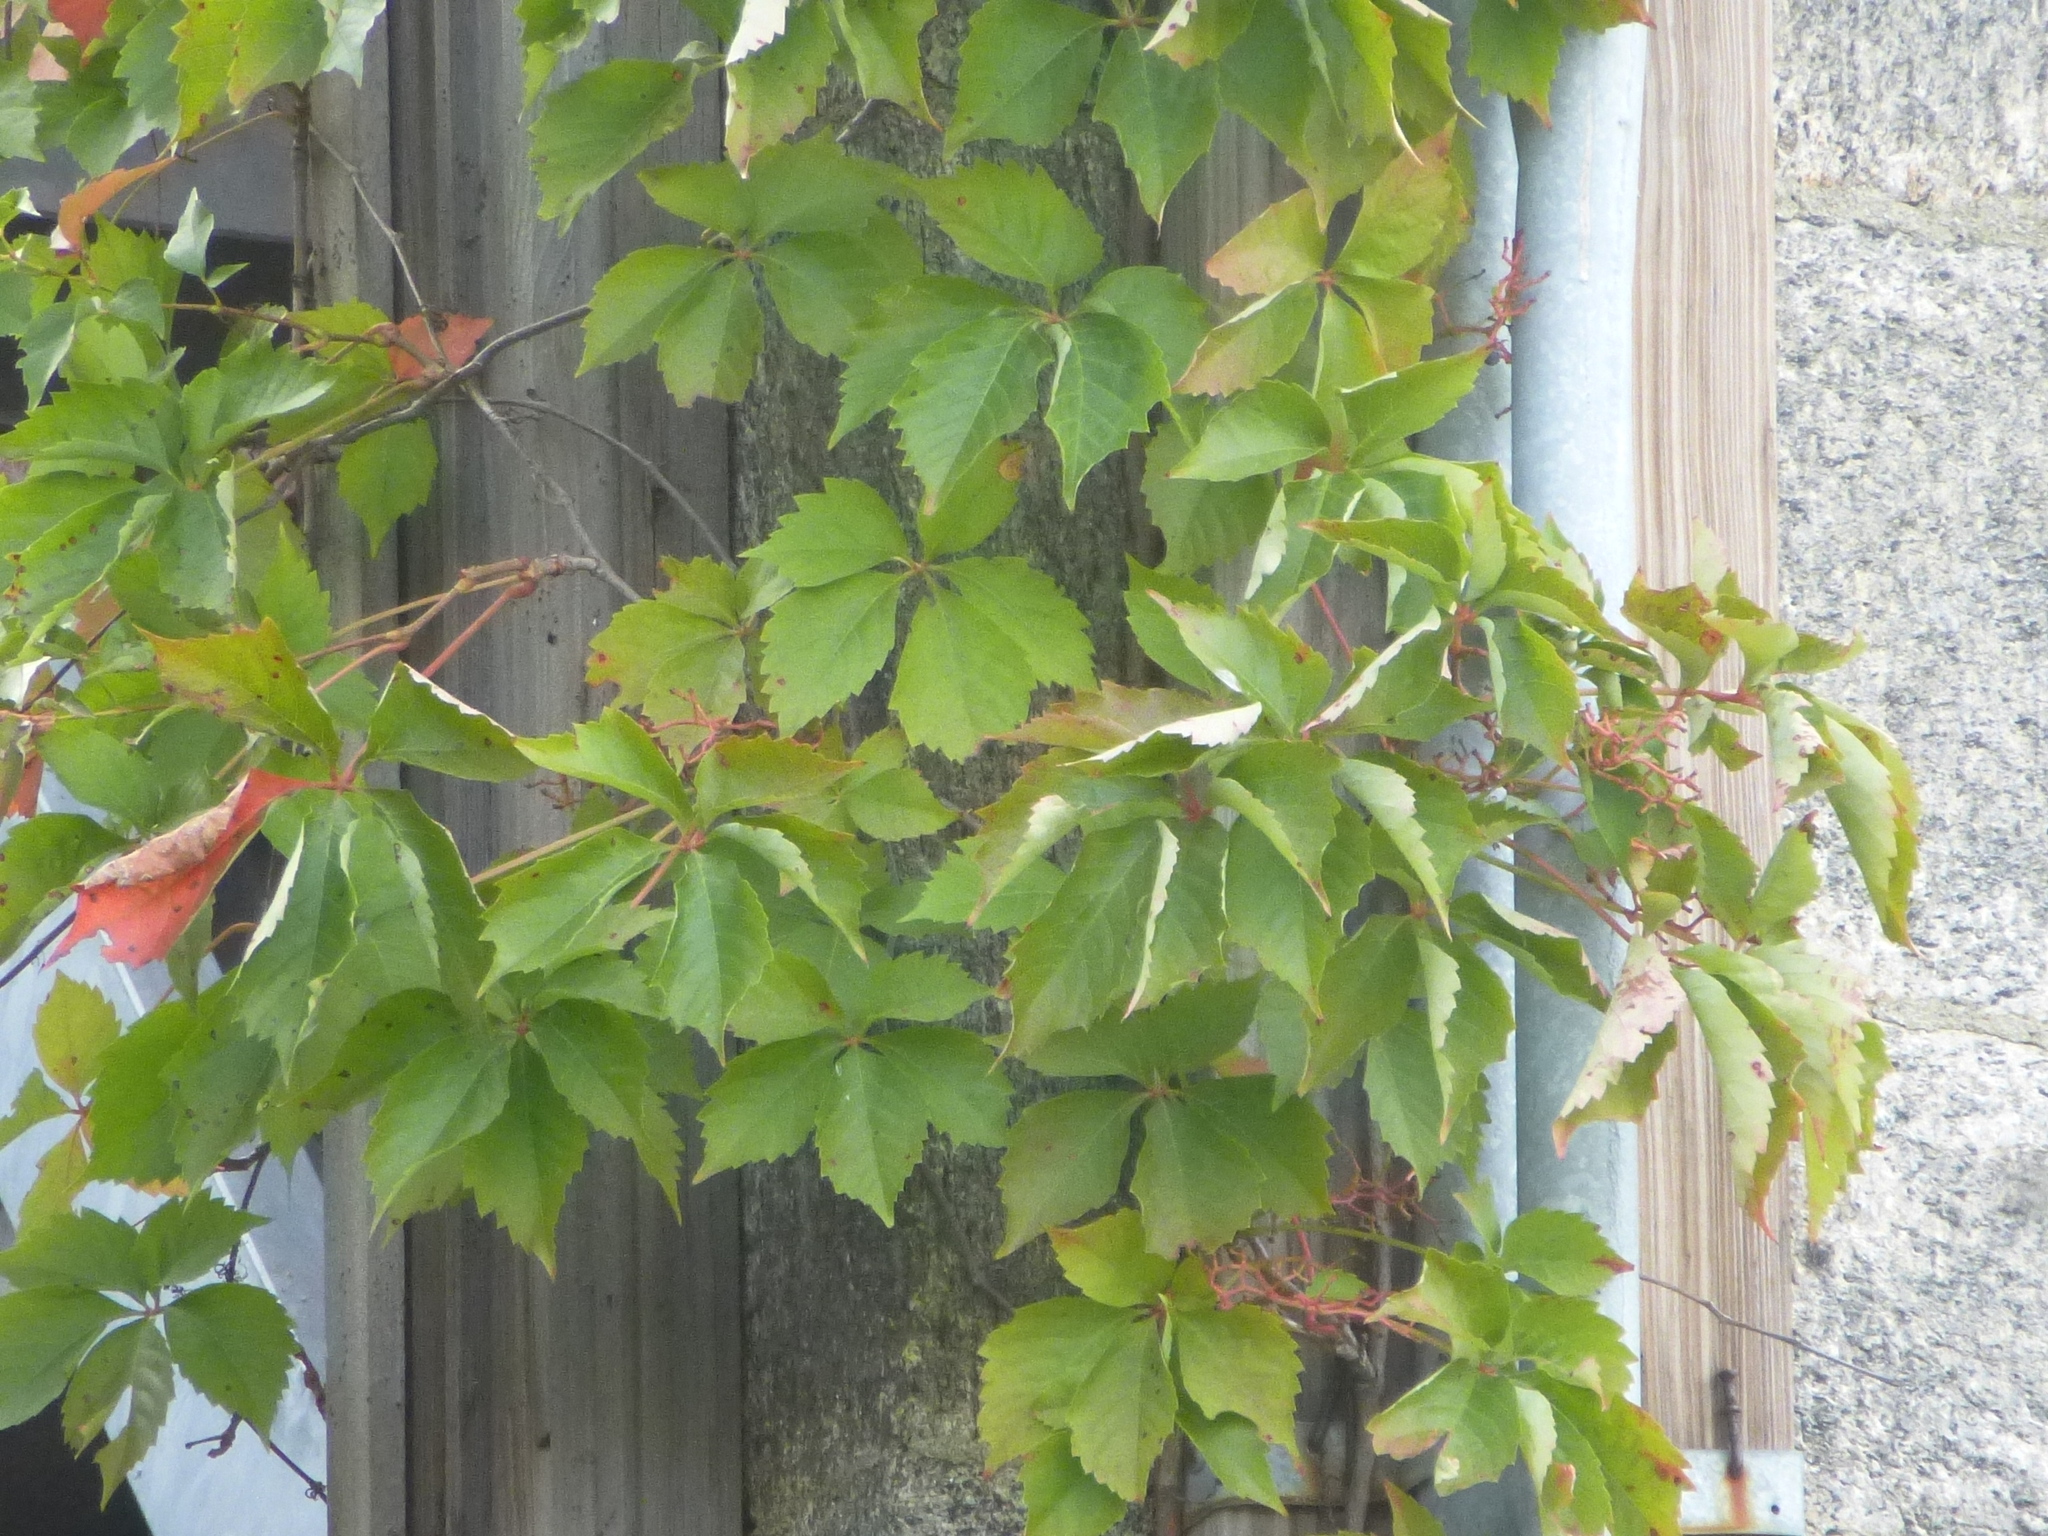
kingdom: Plantae
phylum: Tracheophyta
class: Magnoliopsida
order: Vitales
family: Vitaceae
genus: Parthenocissus
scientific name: Parthenocissus quinquefolia
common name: Virginia-creeper
